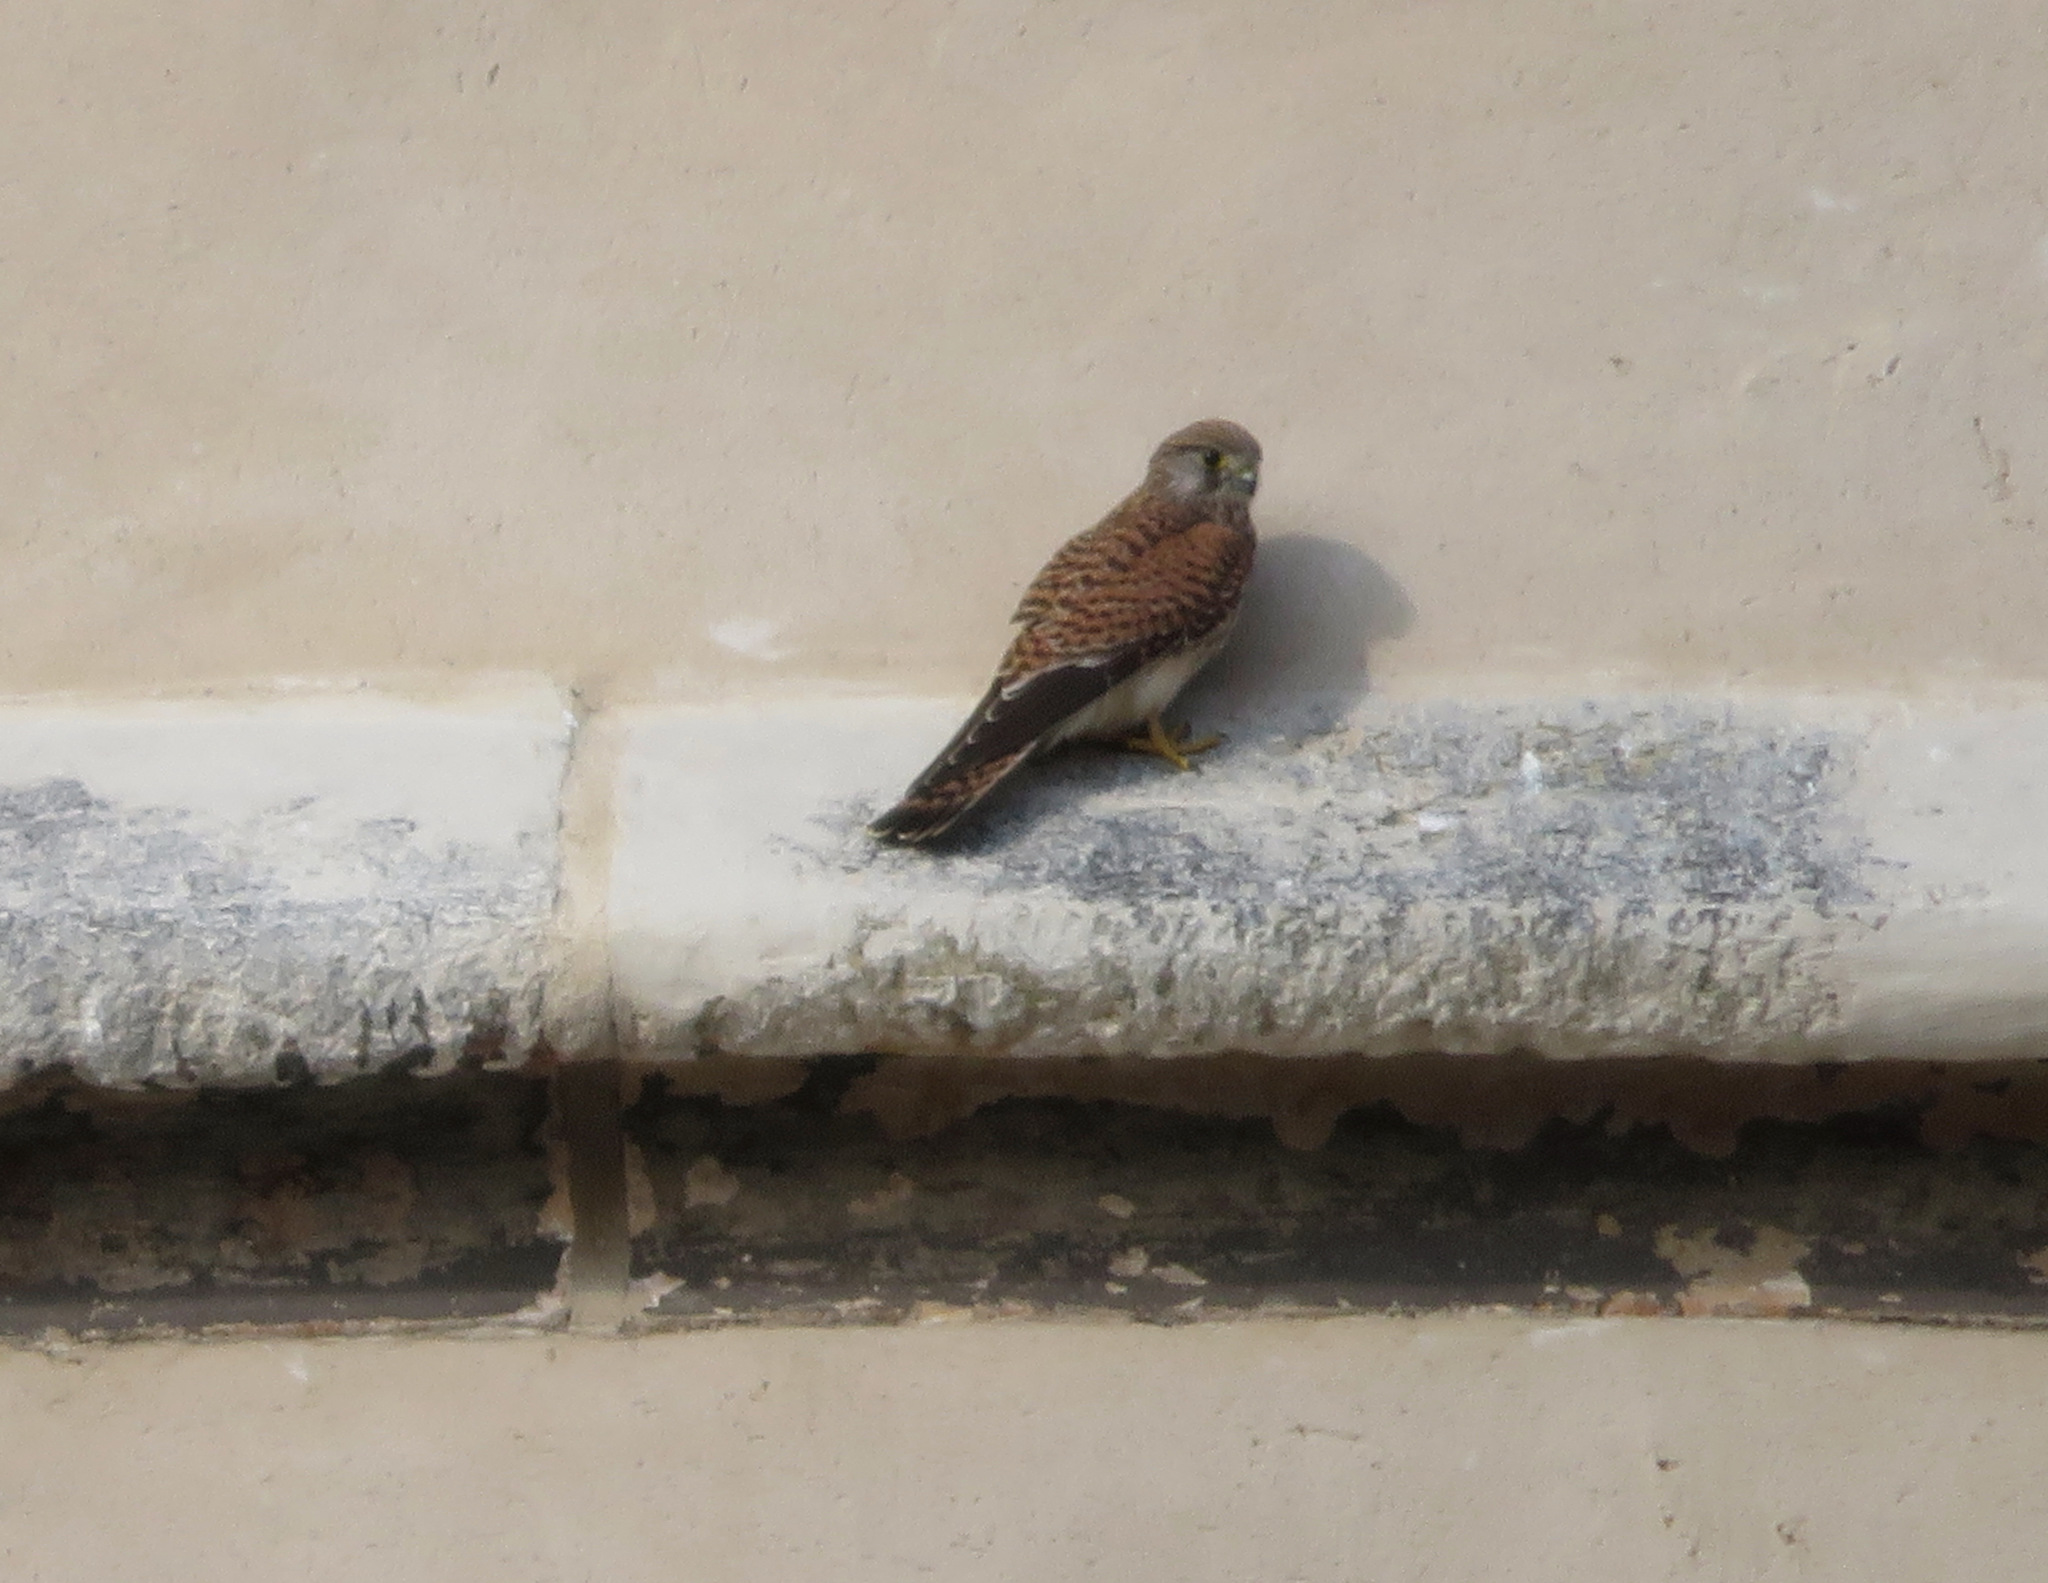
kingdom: Animalia
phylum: Chordata
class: Aves
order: Falconiformes
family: Falconidae
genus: Falco
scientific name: Falco tinnunculus
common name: Common kestrel
